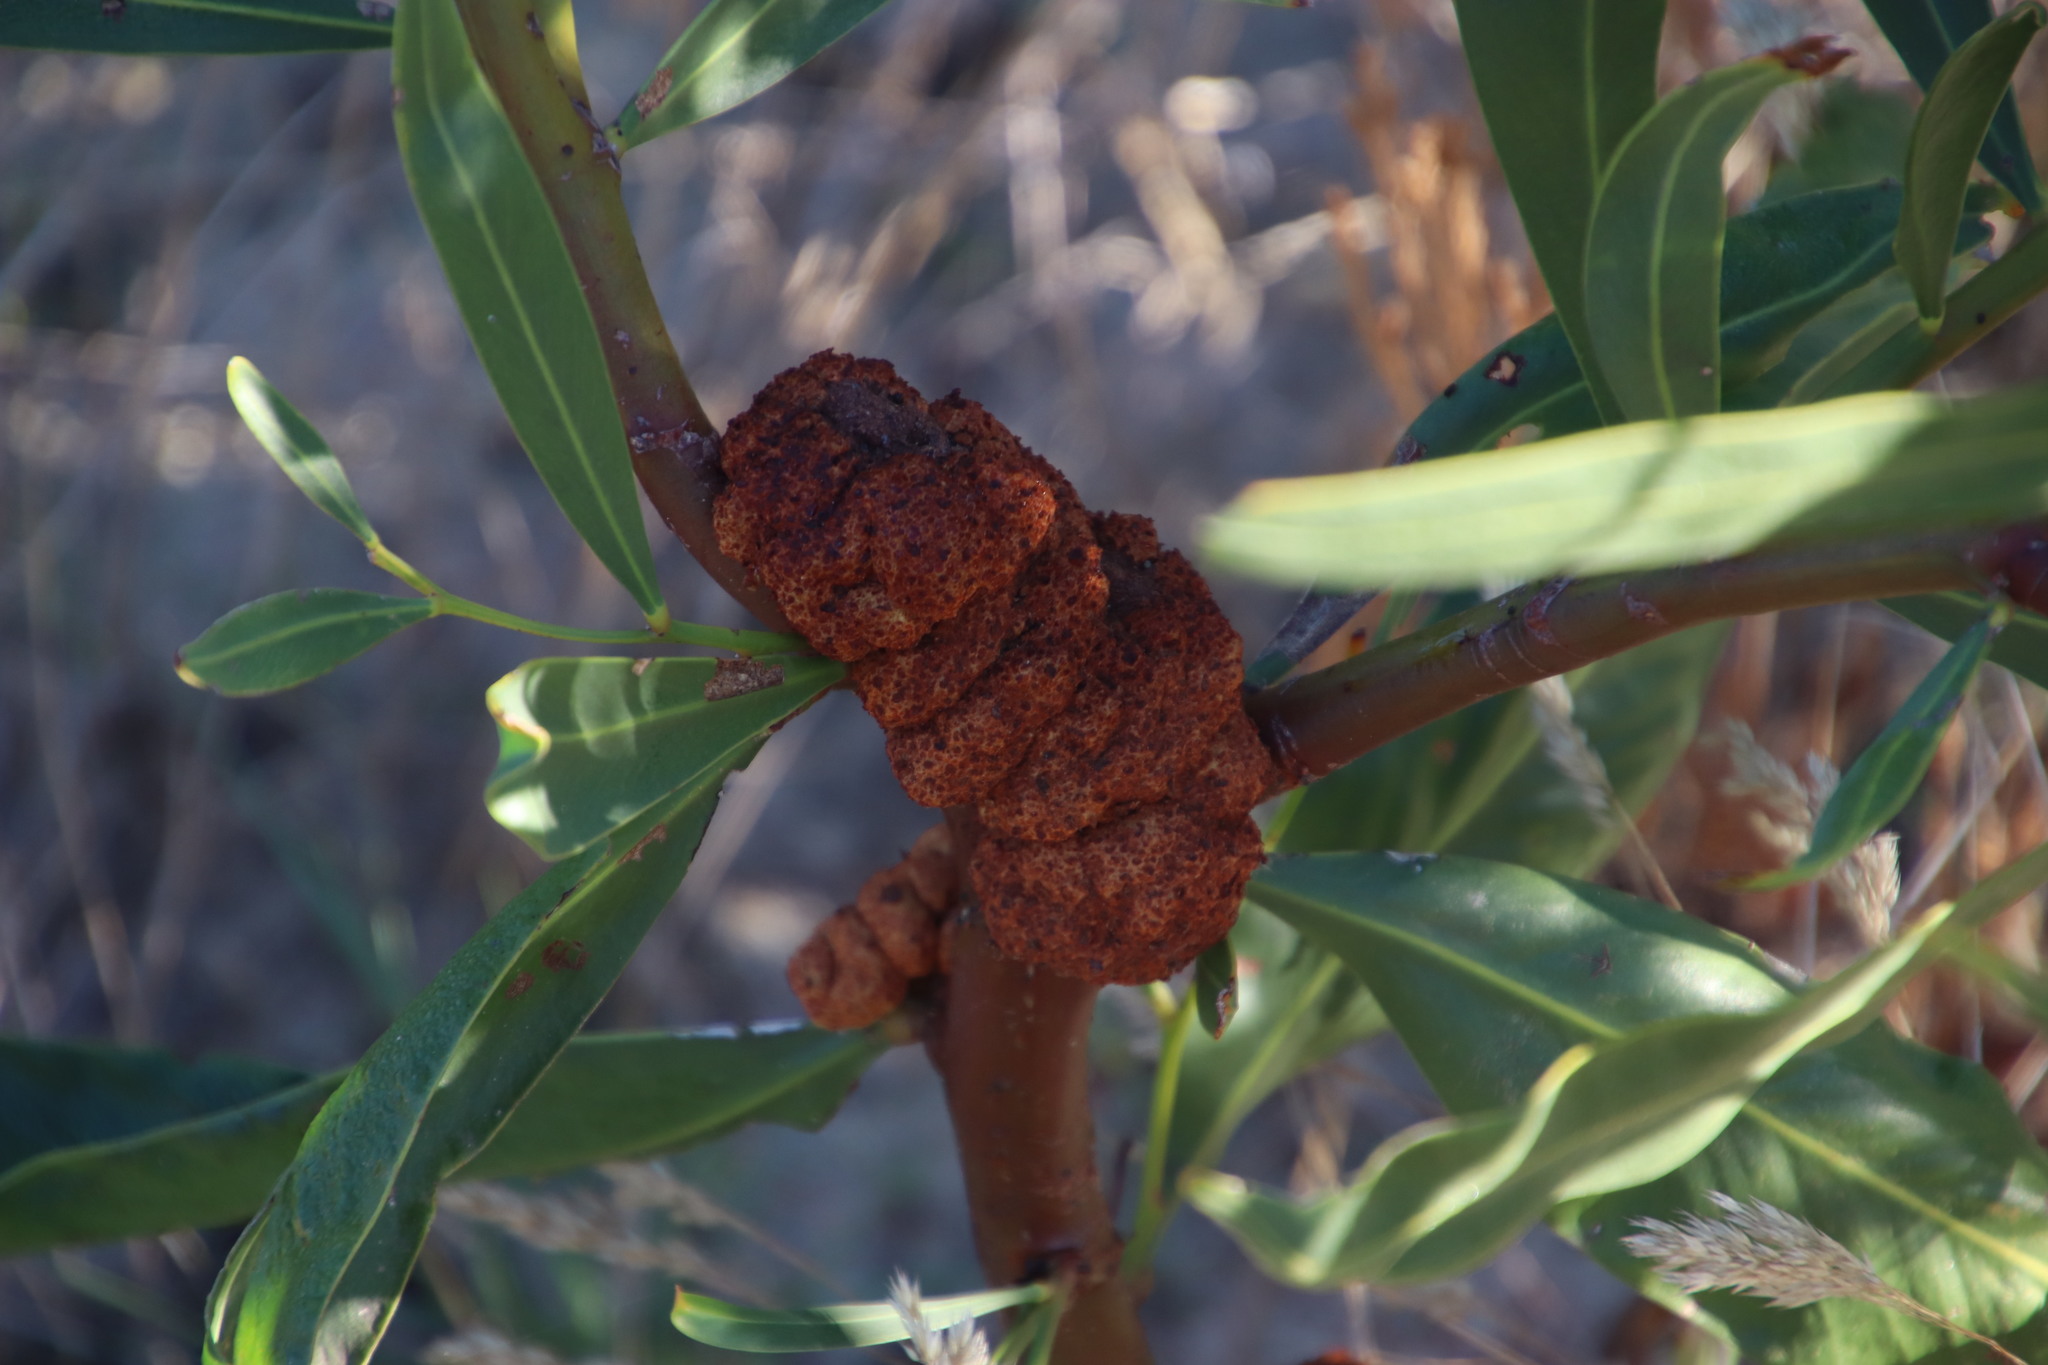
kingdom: Fungi
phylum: Basidiomycota
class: Pucciniomycetes
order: Pucciniales
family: Uromycladiaceae
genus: Uromycladium
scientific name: Uromycladium morrisii
